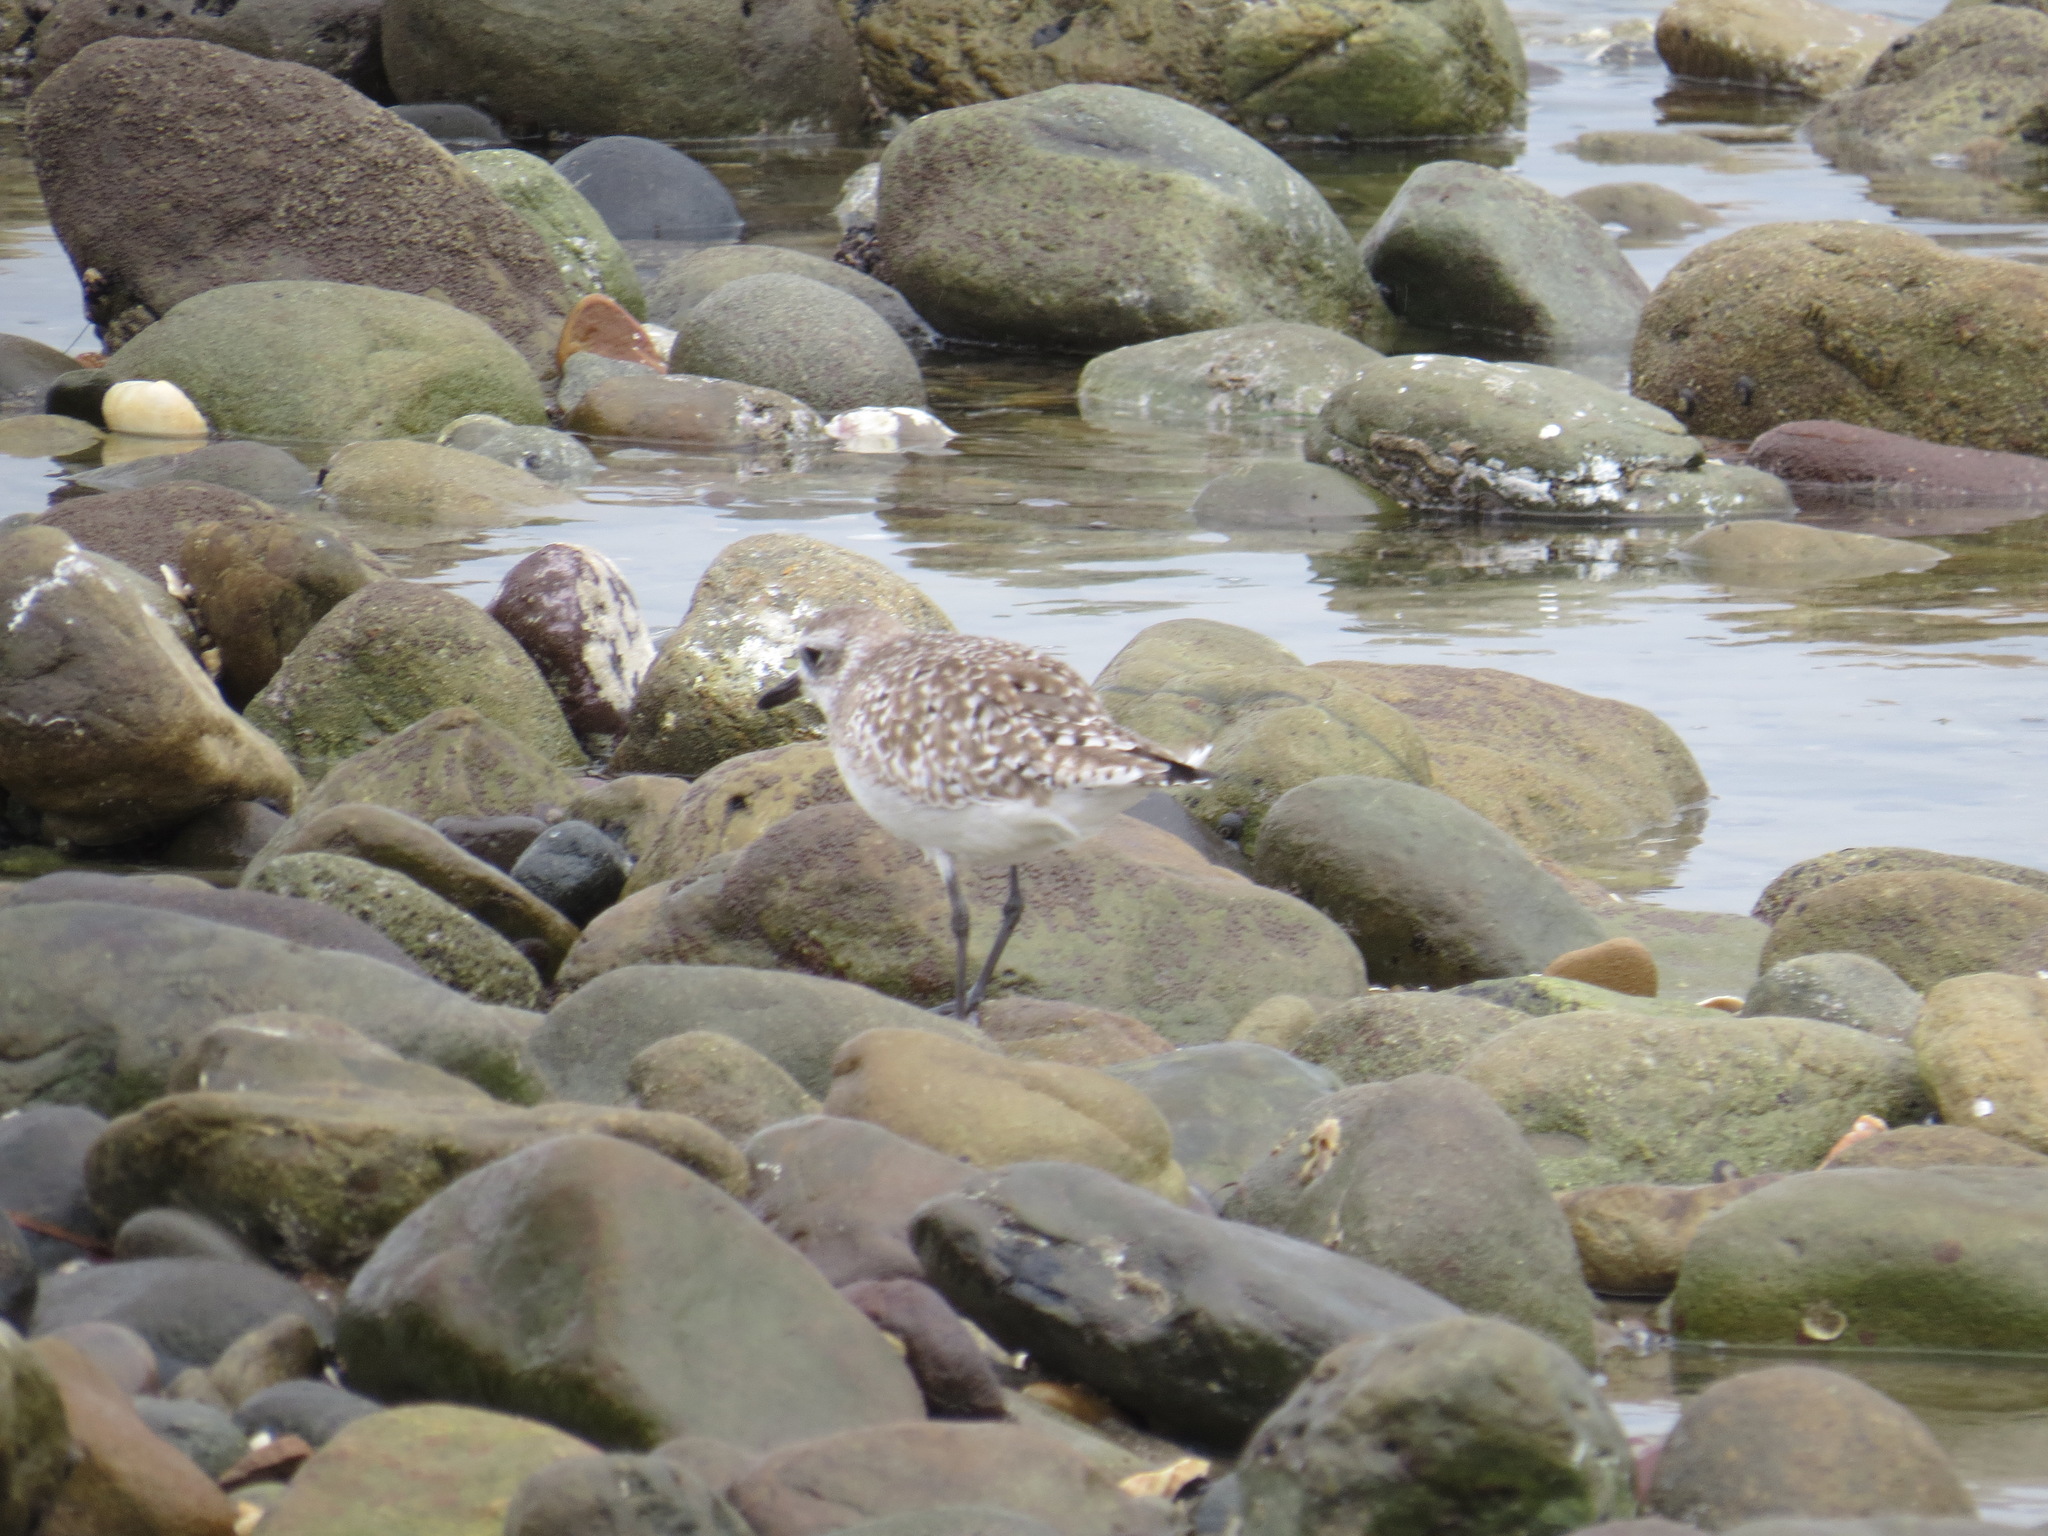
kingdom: Animalia
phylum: Chordata
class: Aves
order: Charadriiformes
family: Charadriidae
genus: Pluvialis
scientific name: Pluvialis squatarola
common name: Grey plover
